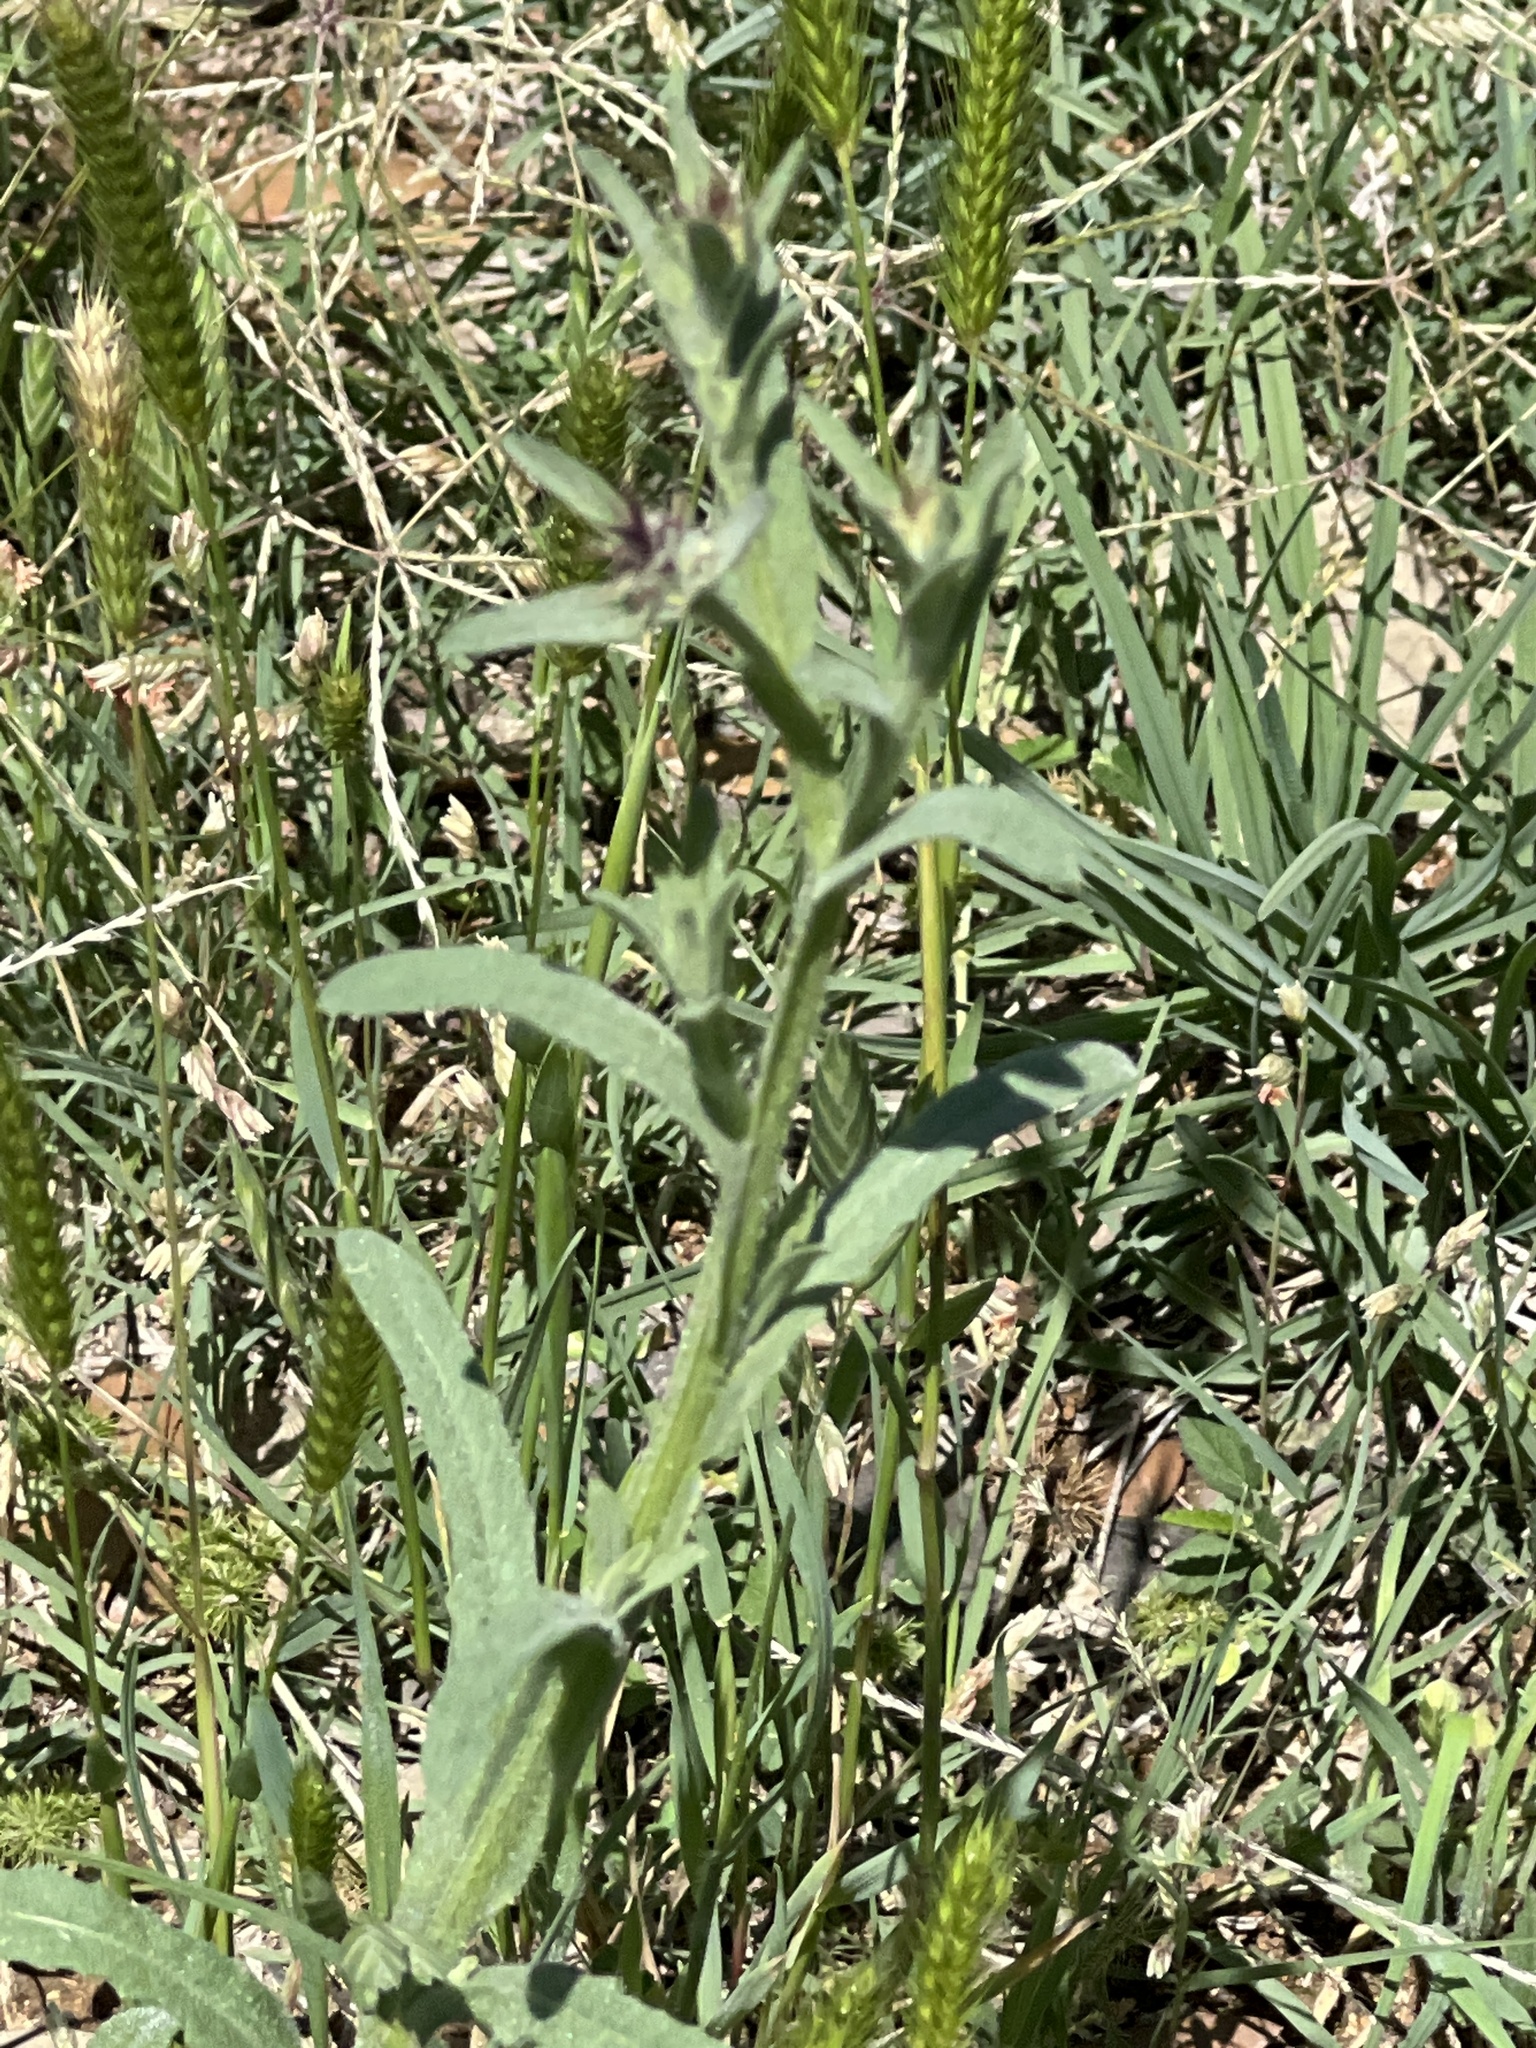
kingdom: Plantae
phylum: Tracheophyta
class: Magnoliopsida
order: Asterales
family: Asteraceae
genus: Centaurea
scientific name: Centaurea melitensis
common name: Maltese star-thistle
